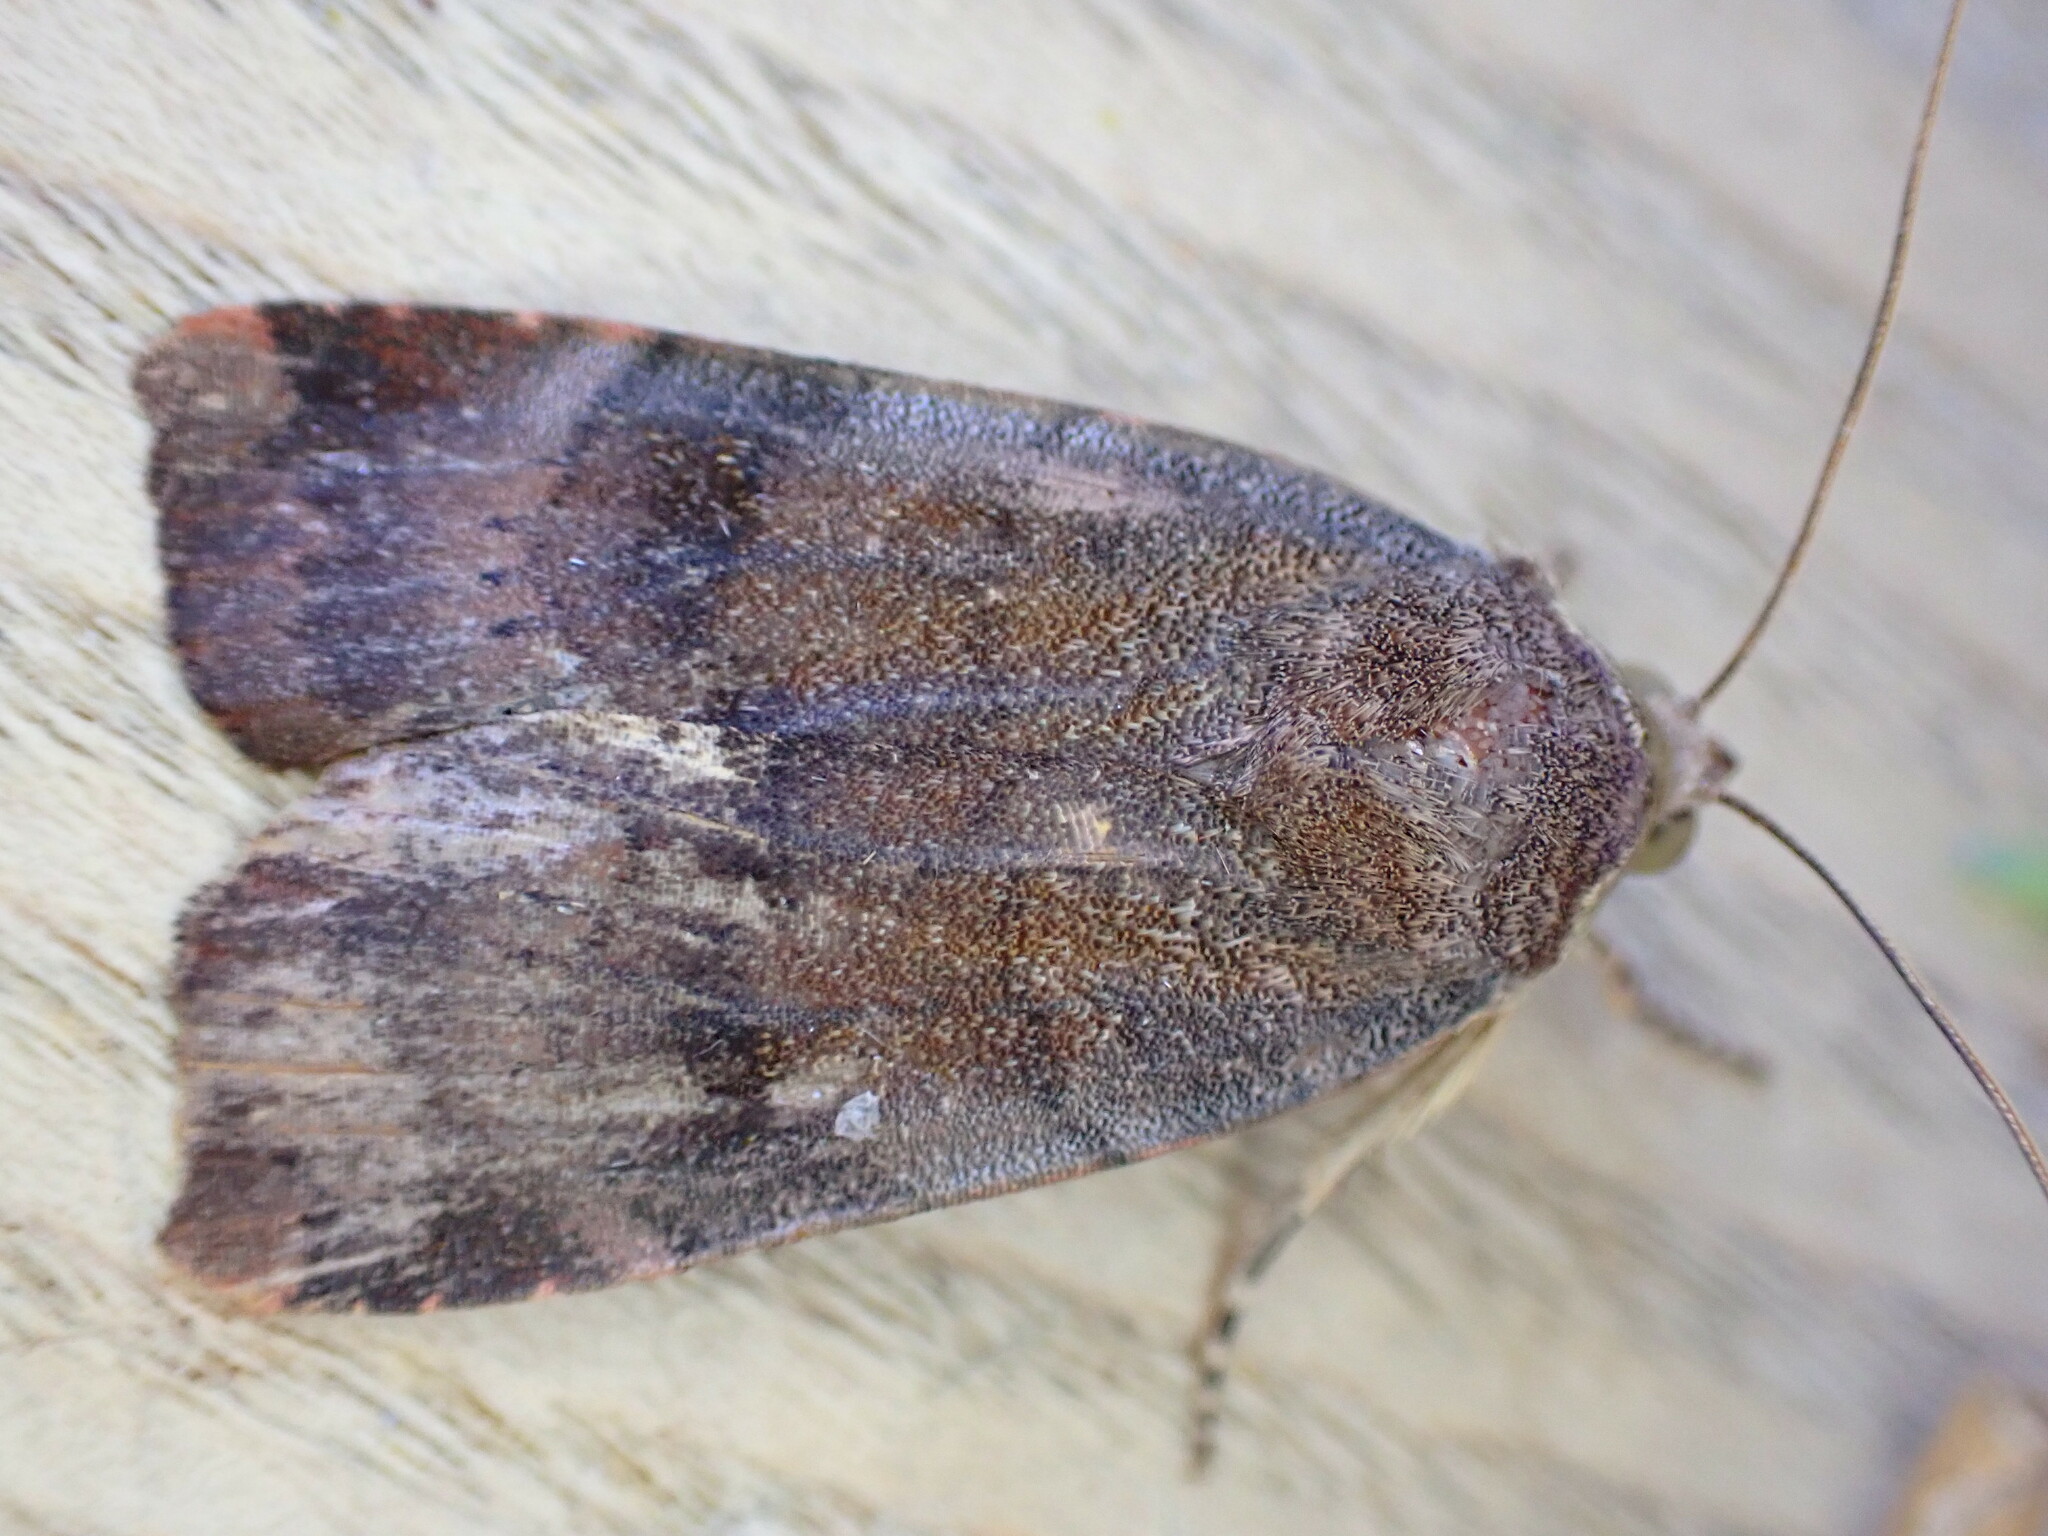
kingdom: Animalia
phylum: Arthropoda
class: Insecta
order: Lepidoptera
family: Noctuidae
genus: Noctua
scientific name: Noctua janthe
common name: Lesser broad-bordered yellow underwing
